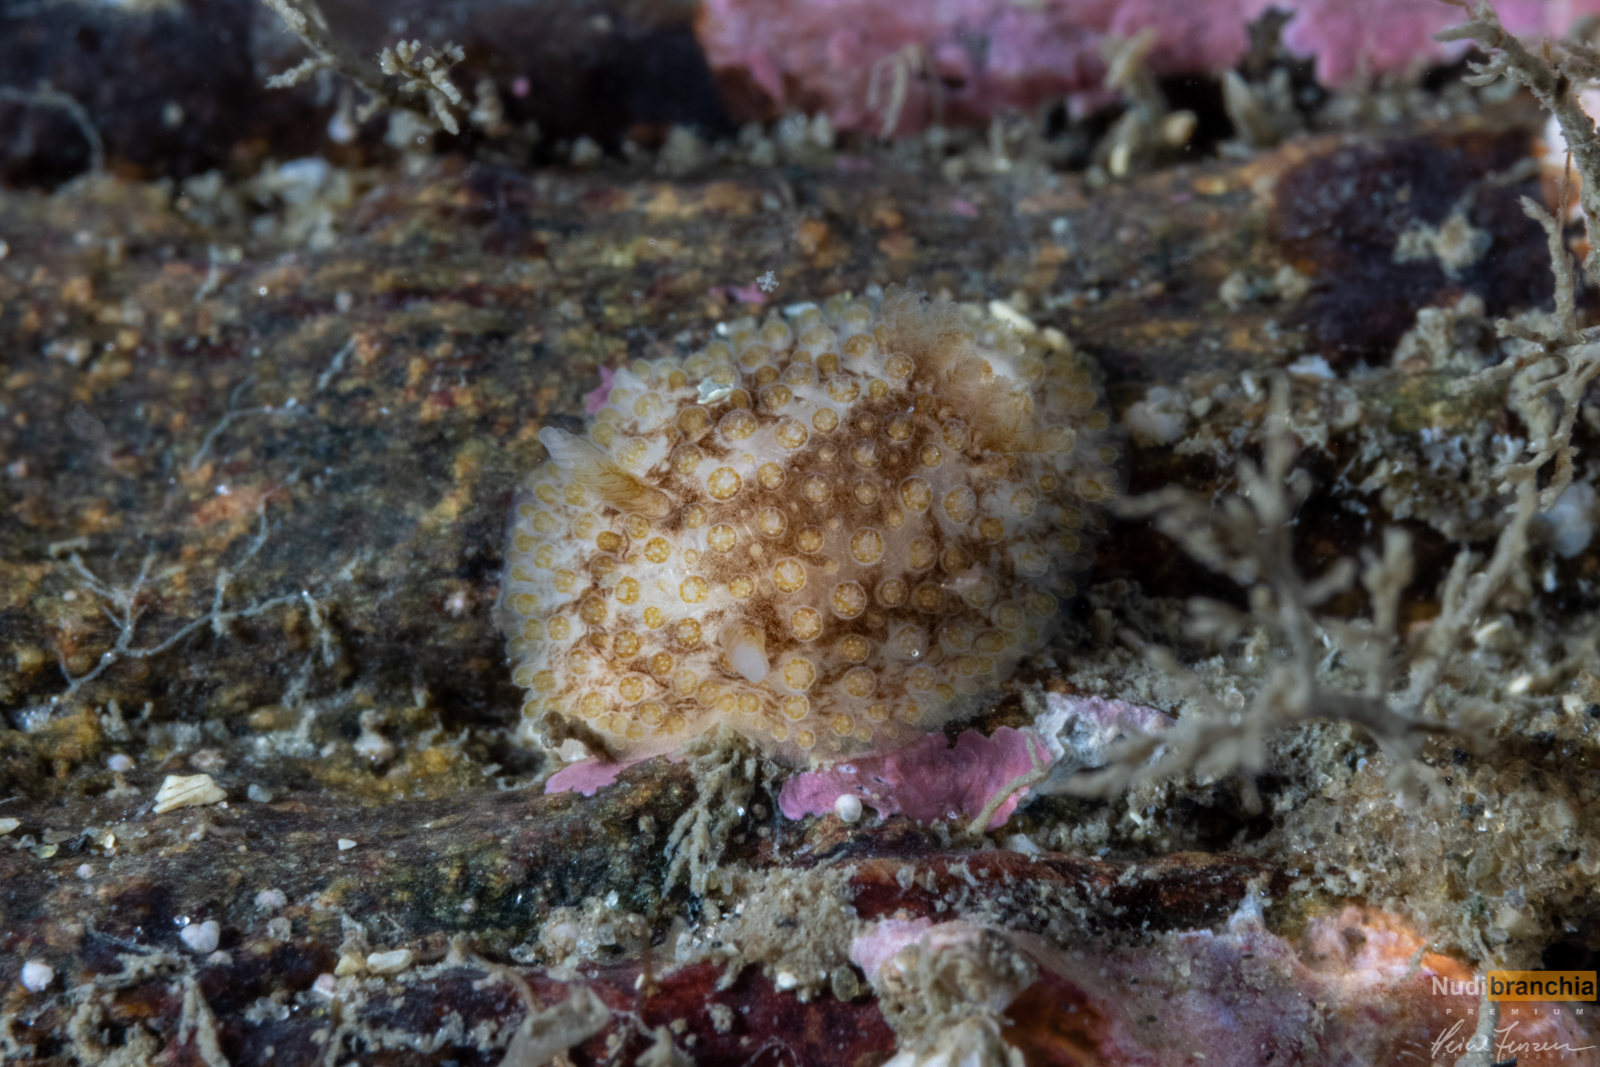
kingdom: Animalia
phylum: Mollusca
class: Gastropoda
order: Nudibranchia
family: Onchidorididae
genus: Onchidoris
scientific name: Onchidoris bilamellata
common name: Barnacle-eating onchidoris
